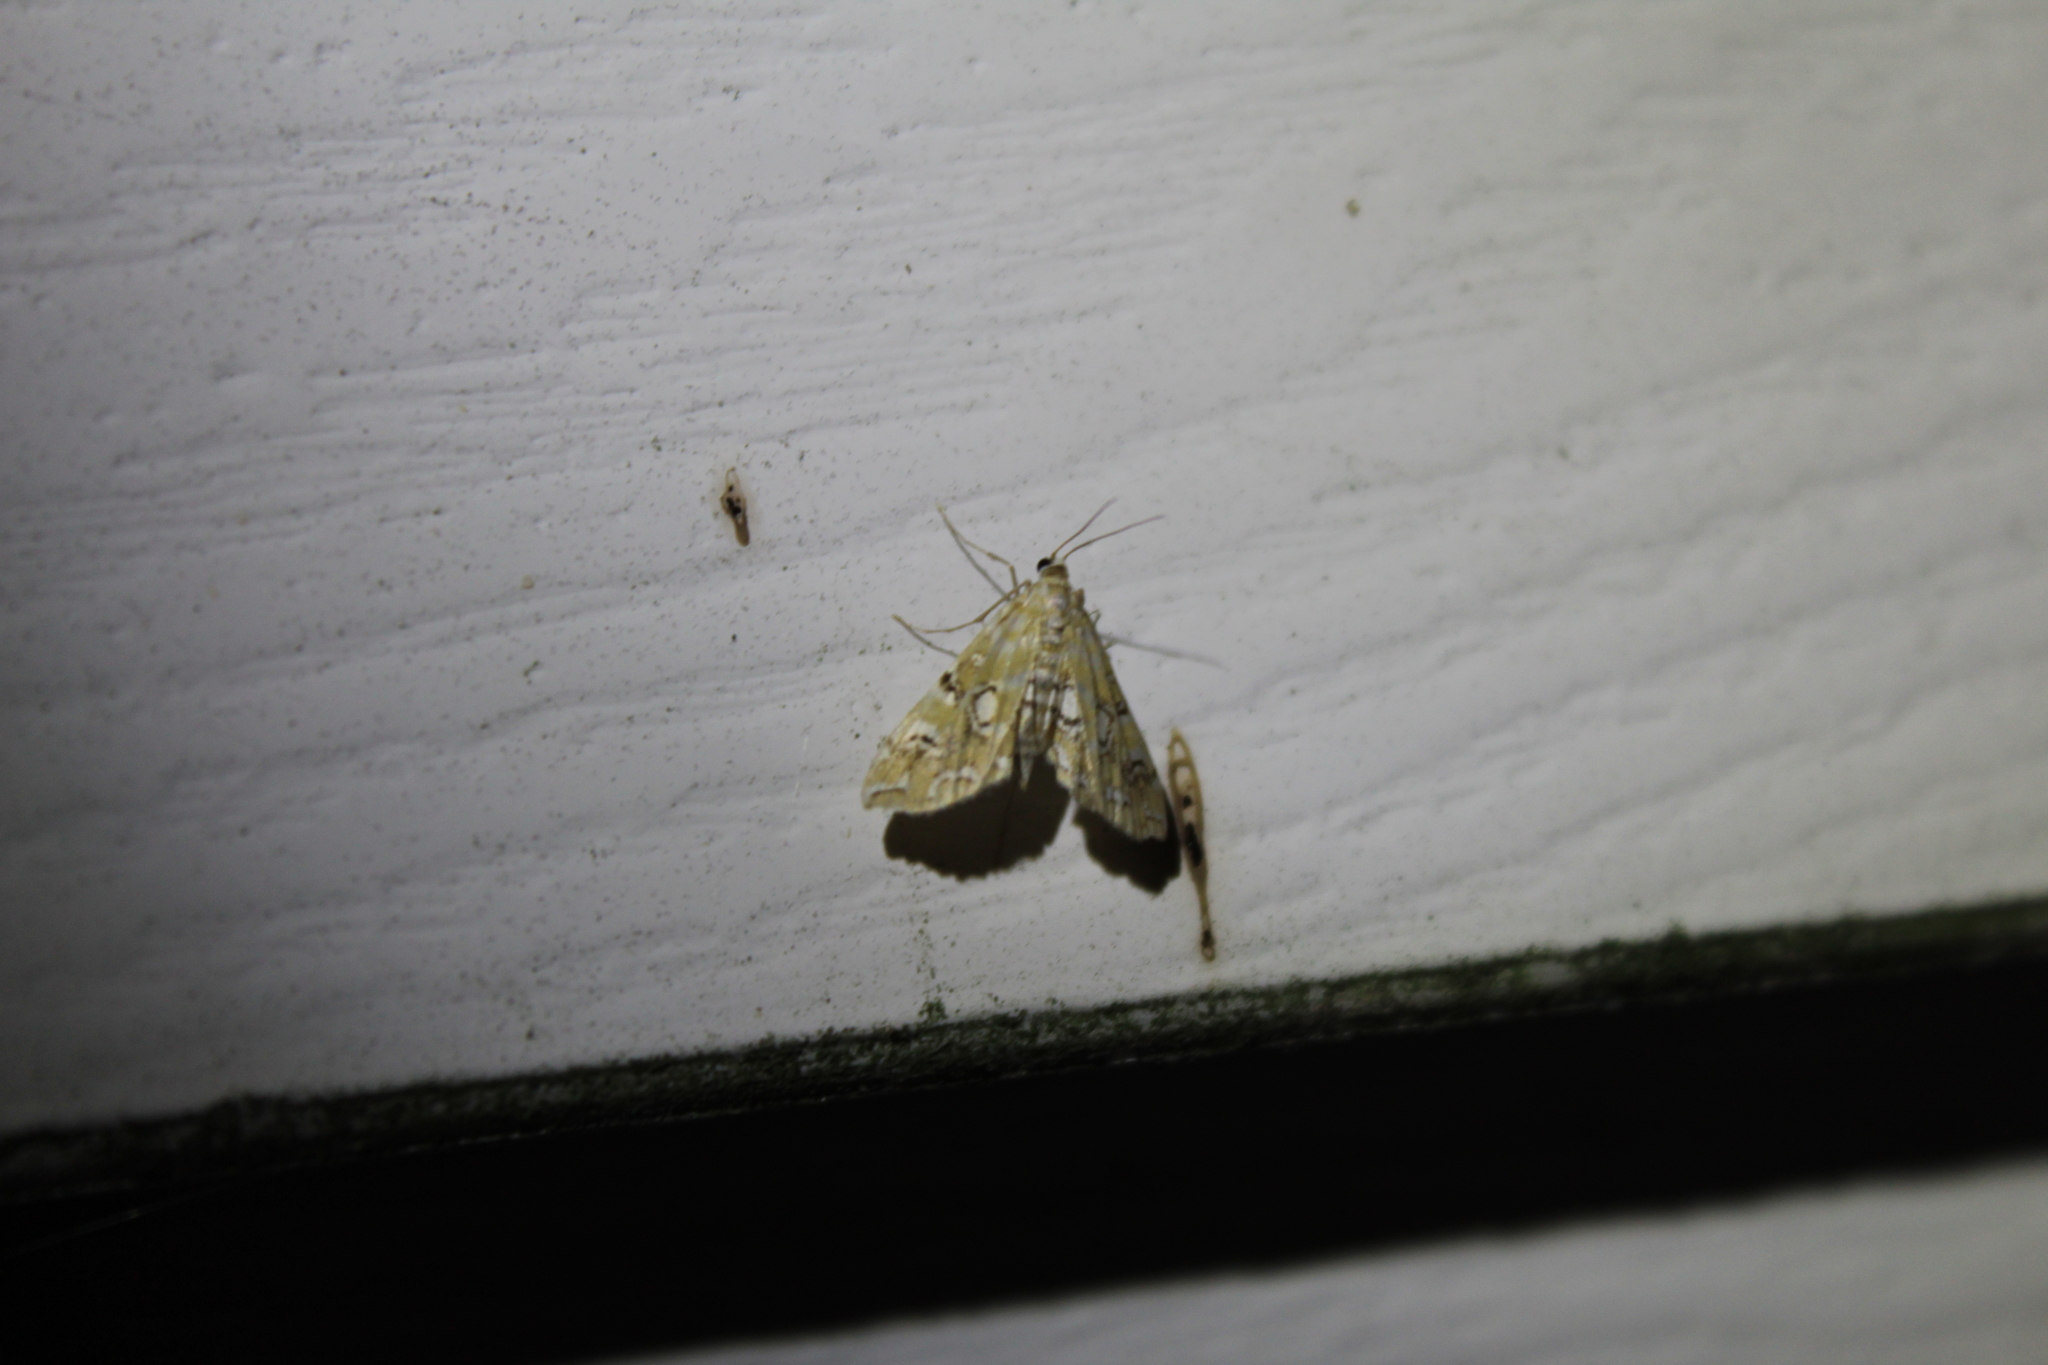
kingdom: Animalia
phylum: Arthropoda
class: Insecta
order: Lepidoptera
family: Crambidae
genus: Elophila
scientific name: Elophila icciusalis
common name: Pondside pyralid moth
